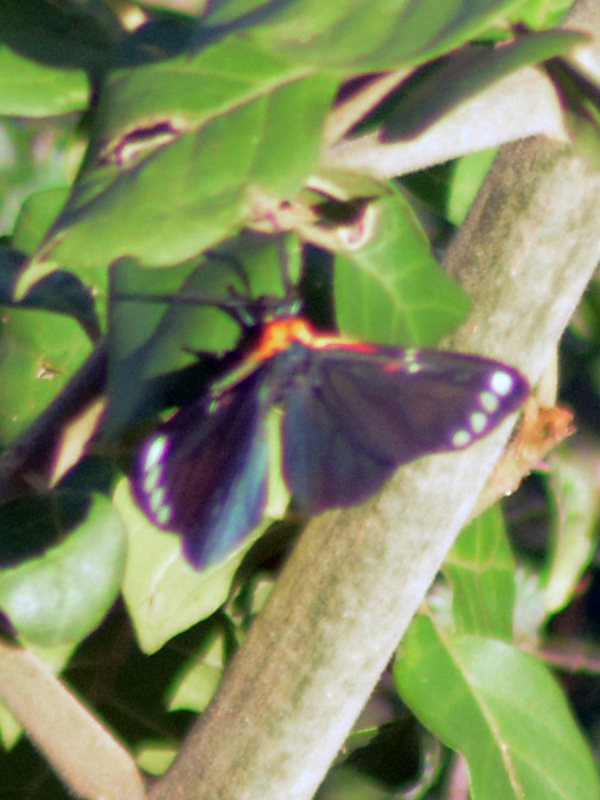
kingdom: Animalia
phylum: Arthropoda
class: Insecta
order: Lepidoptera
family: Erebidae
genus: Phaloesia
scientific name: Phaloesia saucia
